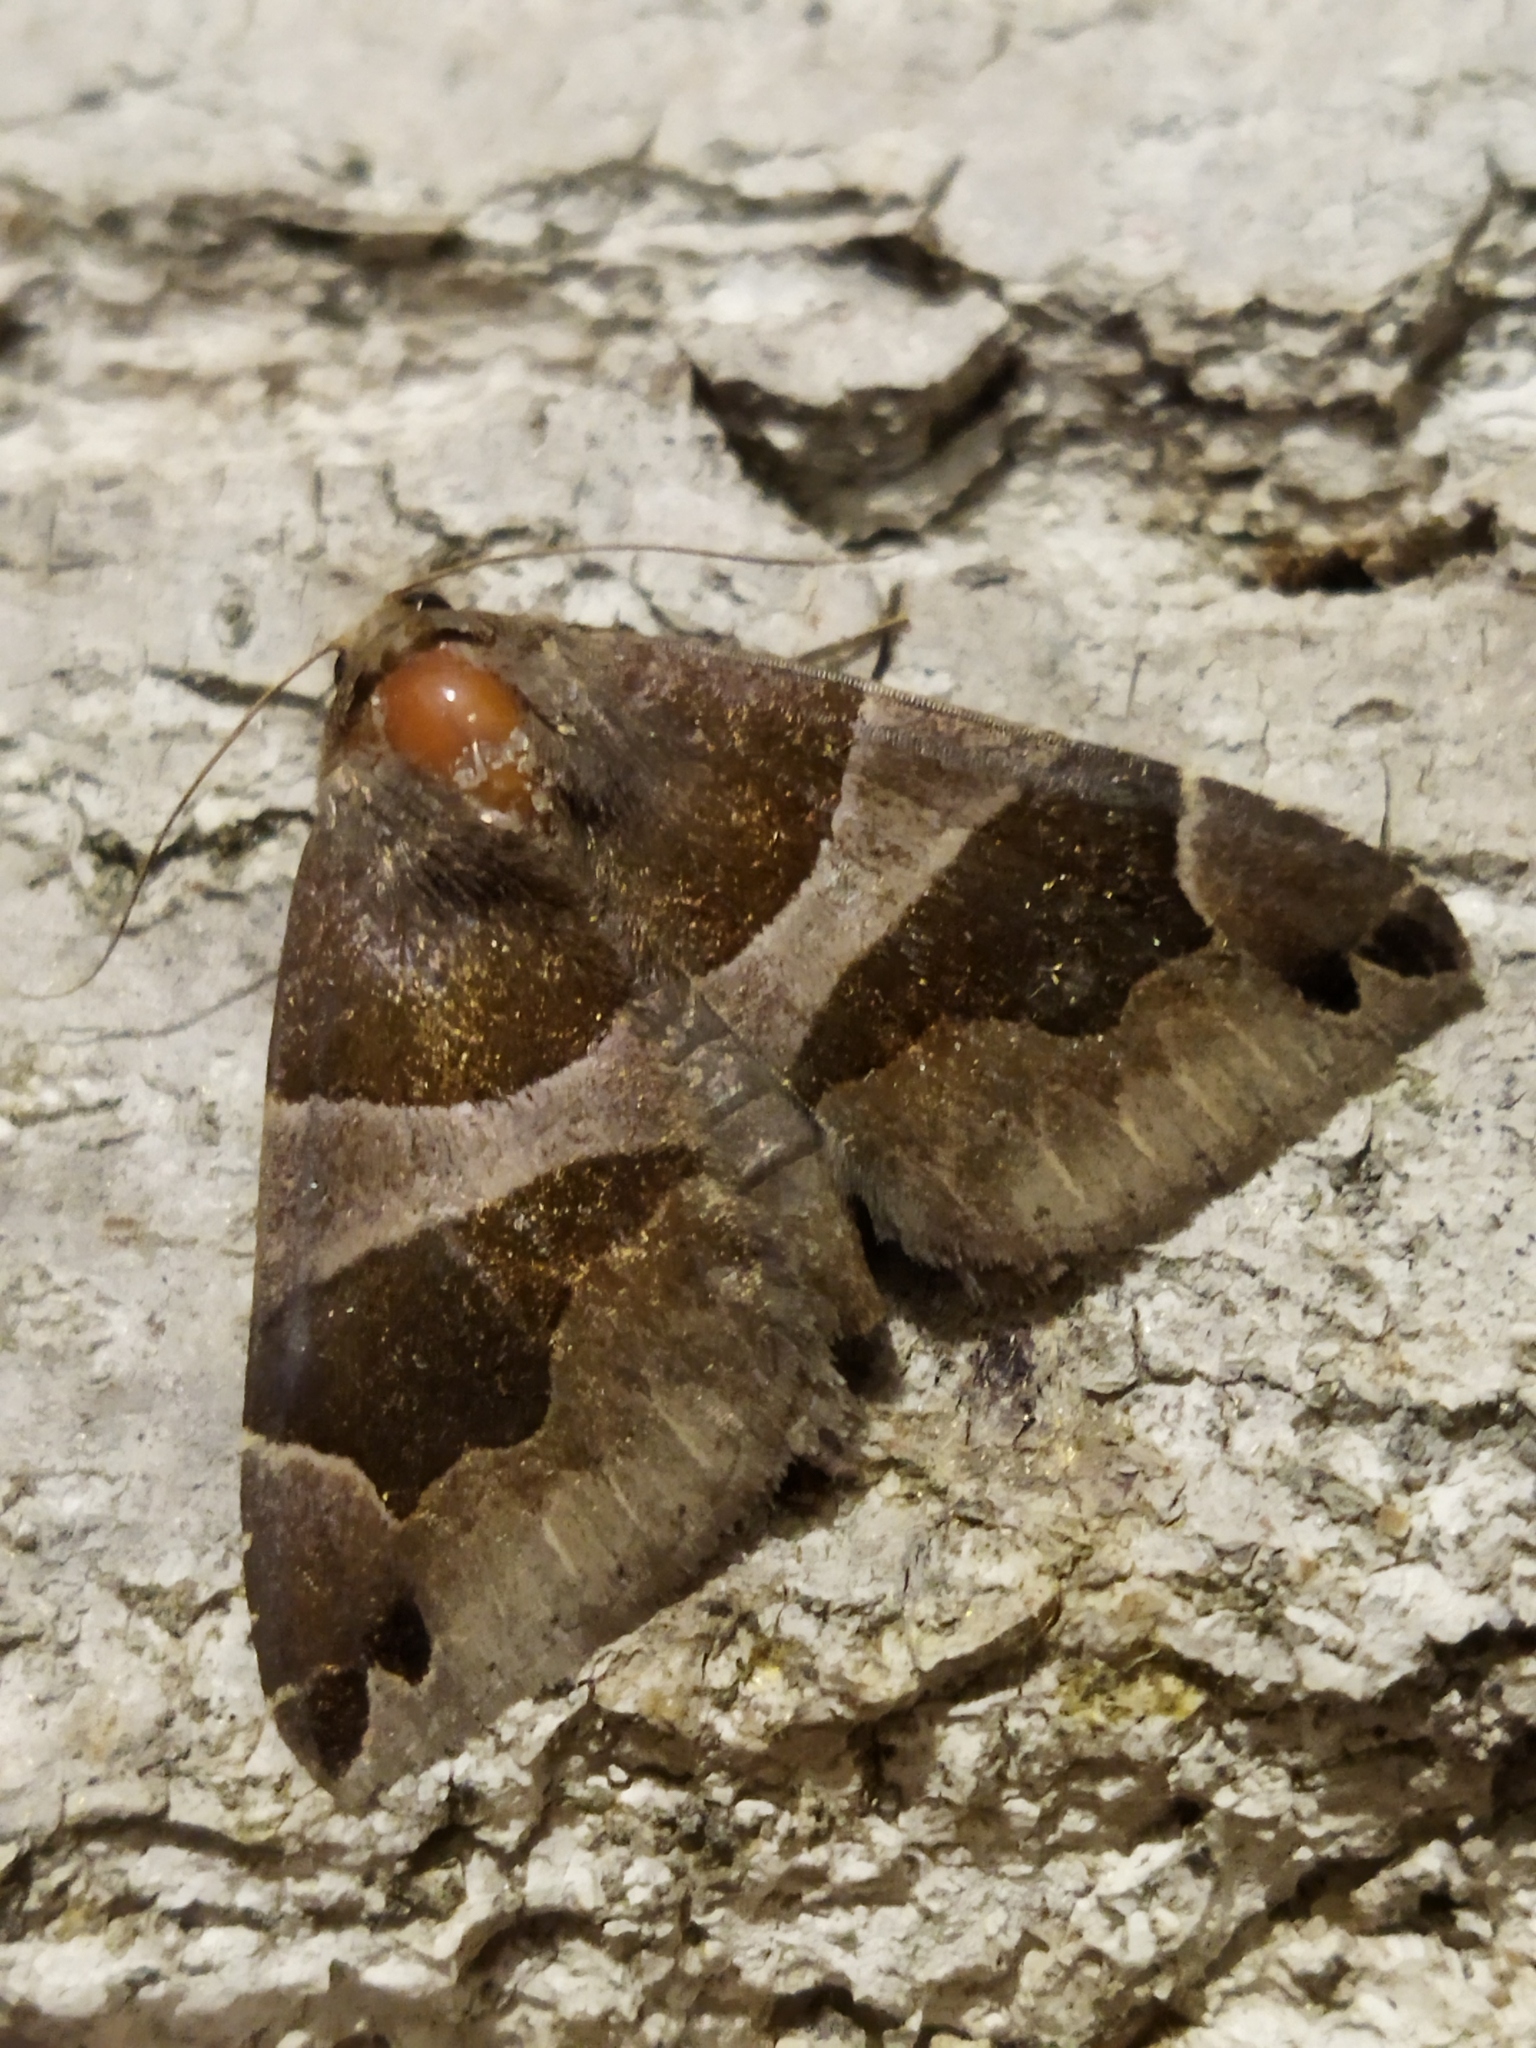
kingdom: Animalia
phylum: Arthropoda
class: Insecta
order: Lepidoptera
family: Erebidae
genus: Dysgonia
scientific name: Dysgonia algira
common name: Passenger
